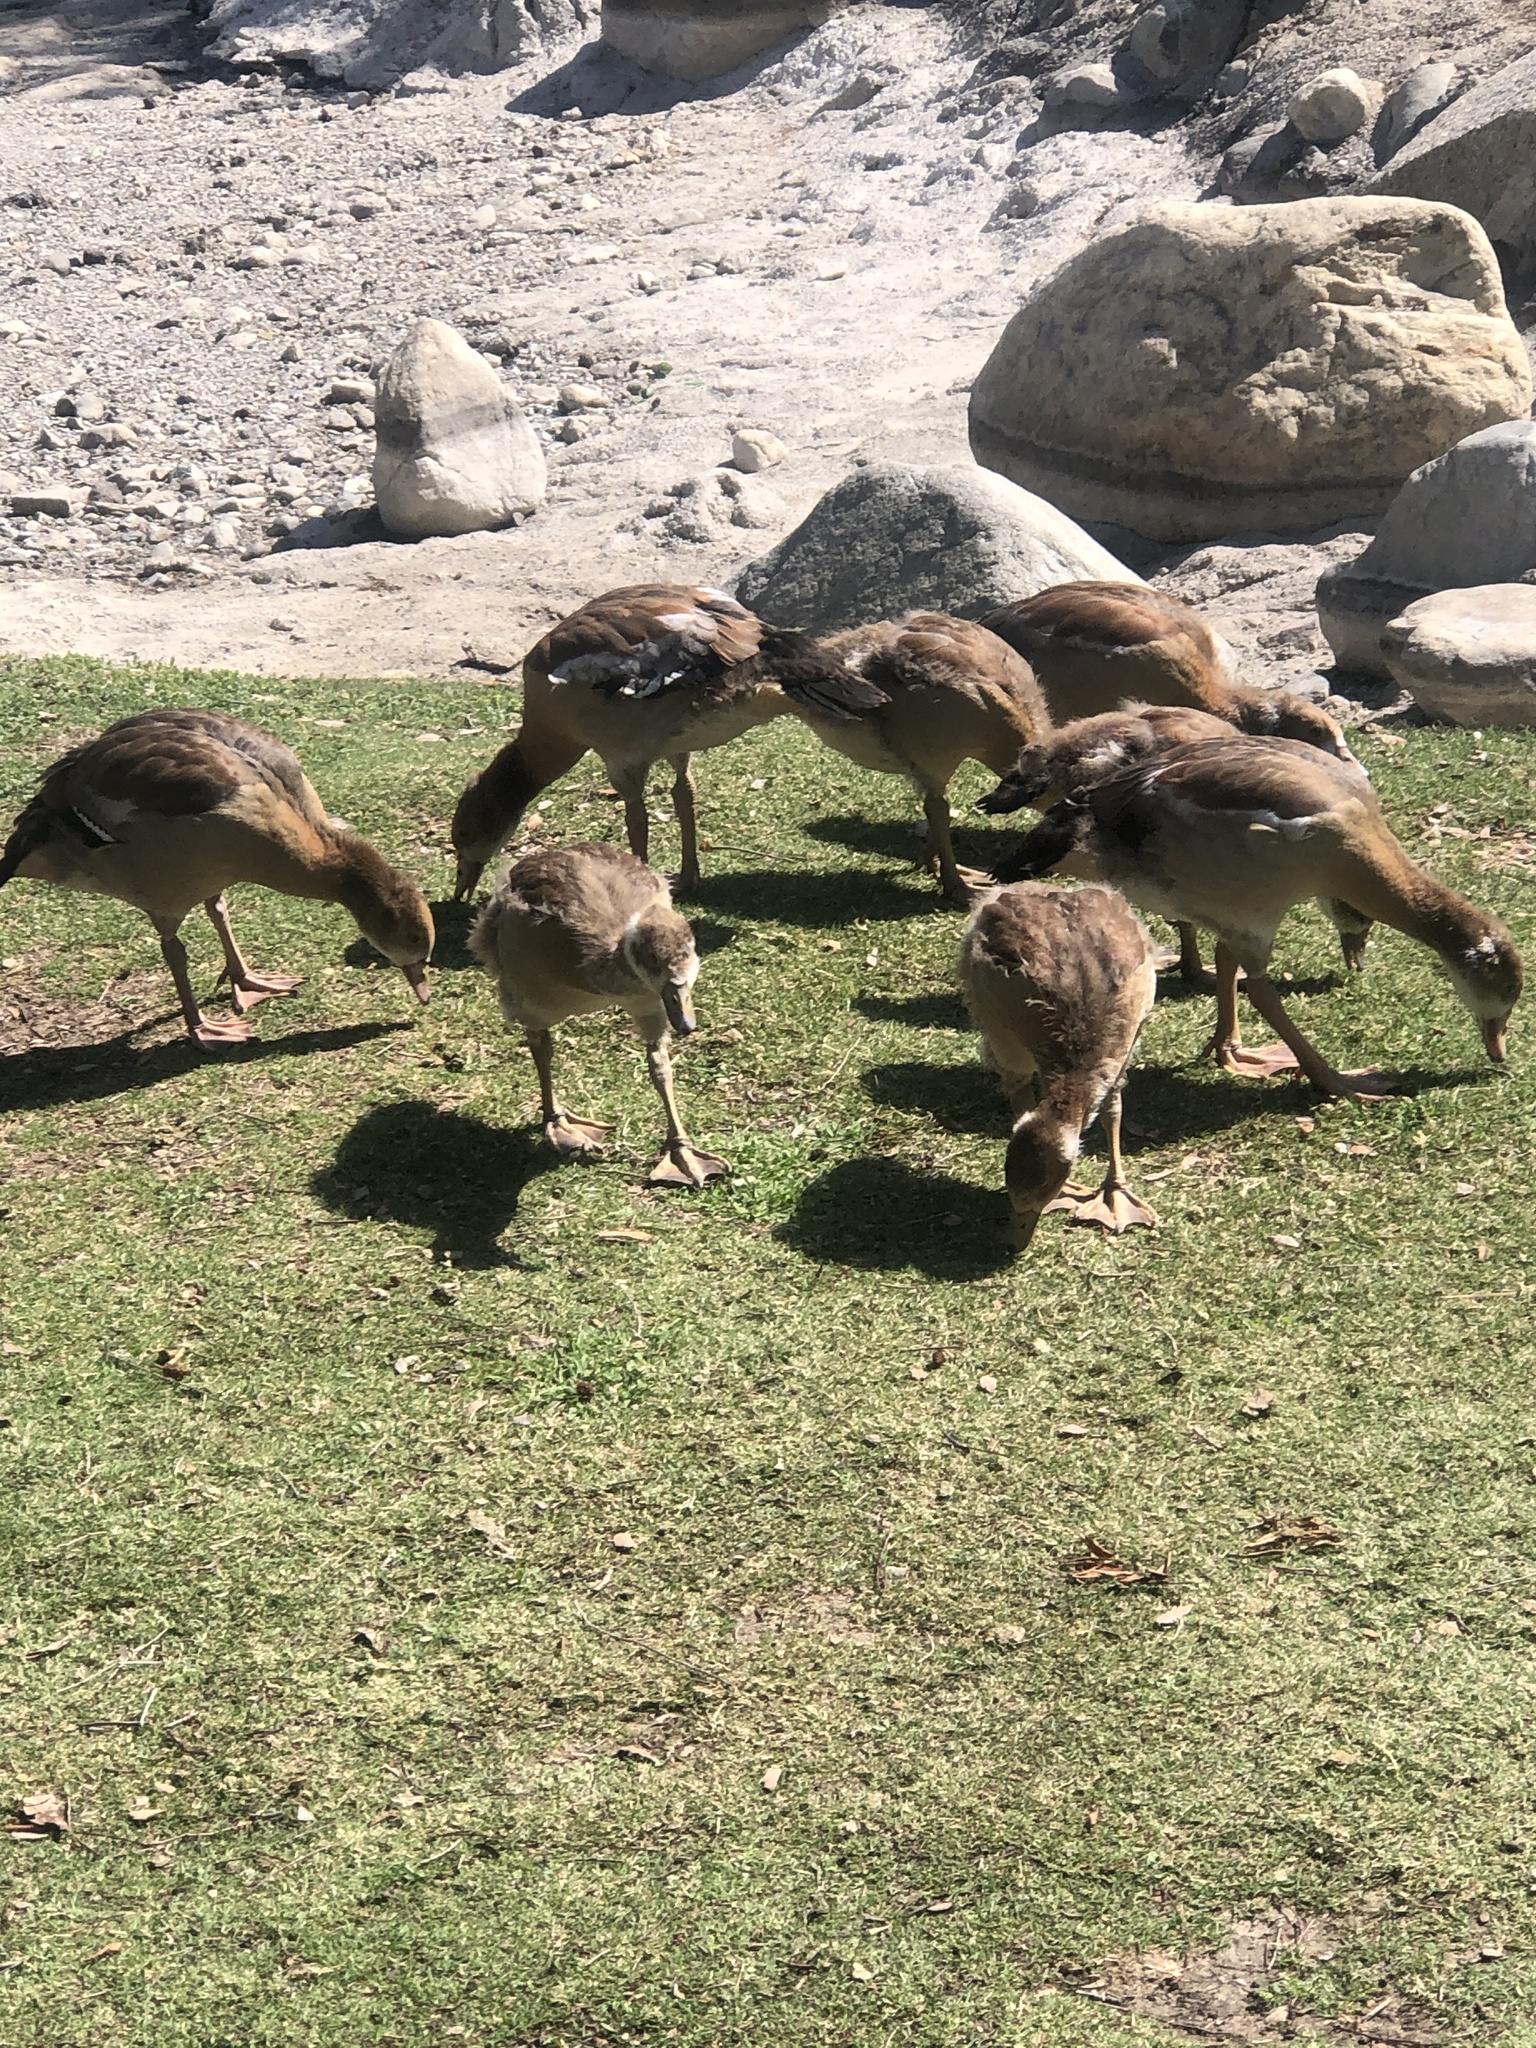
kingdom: Animalia
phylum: Chordata
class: Aves
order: Anseriformes
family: Anatidae
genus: Alopochen
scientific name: Alopochen aegyptiaca
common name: Egyptian goose
